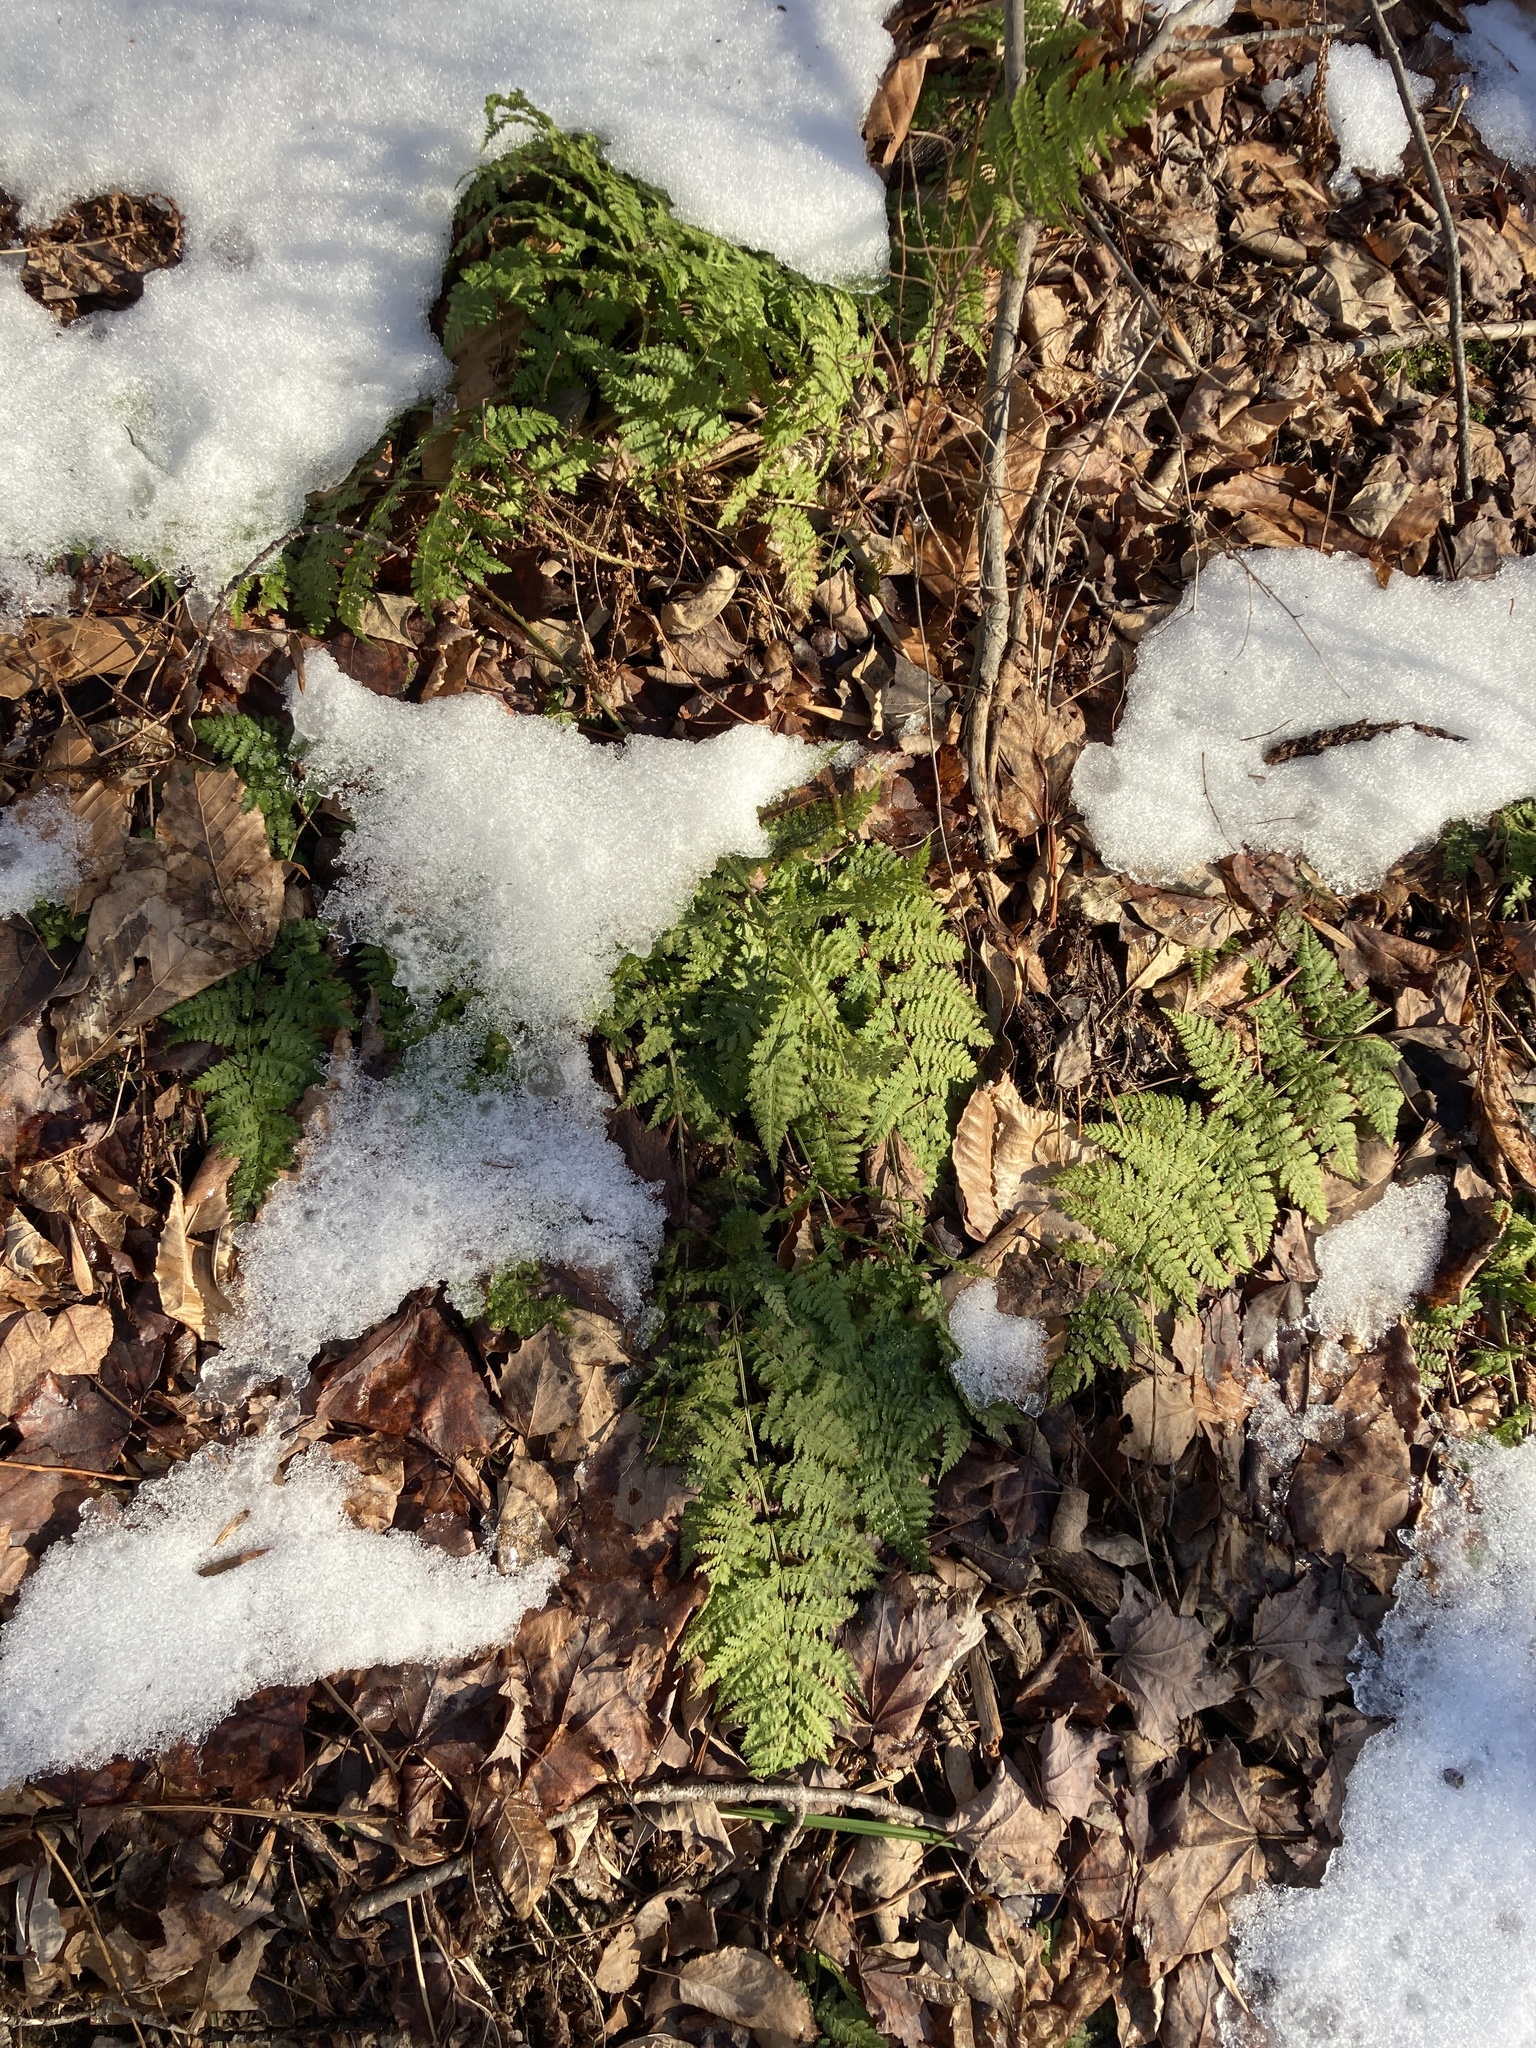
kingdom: Plantae
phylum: Tracheophyta
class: Polypodiopsida
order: Polypodiales
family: Dryopteridaceae
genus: Dryopteris
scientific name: Dryopteris intermedia
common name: Evergreen wood fern
